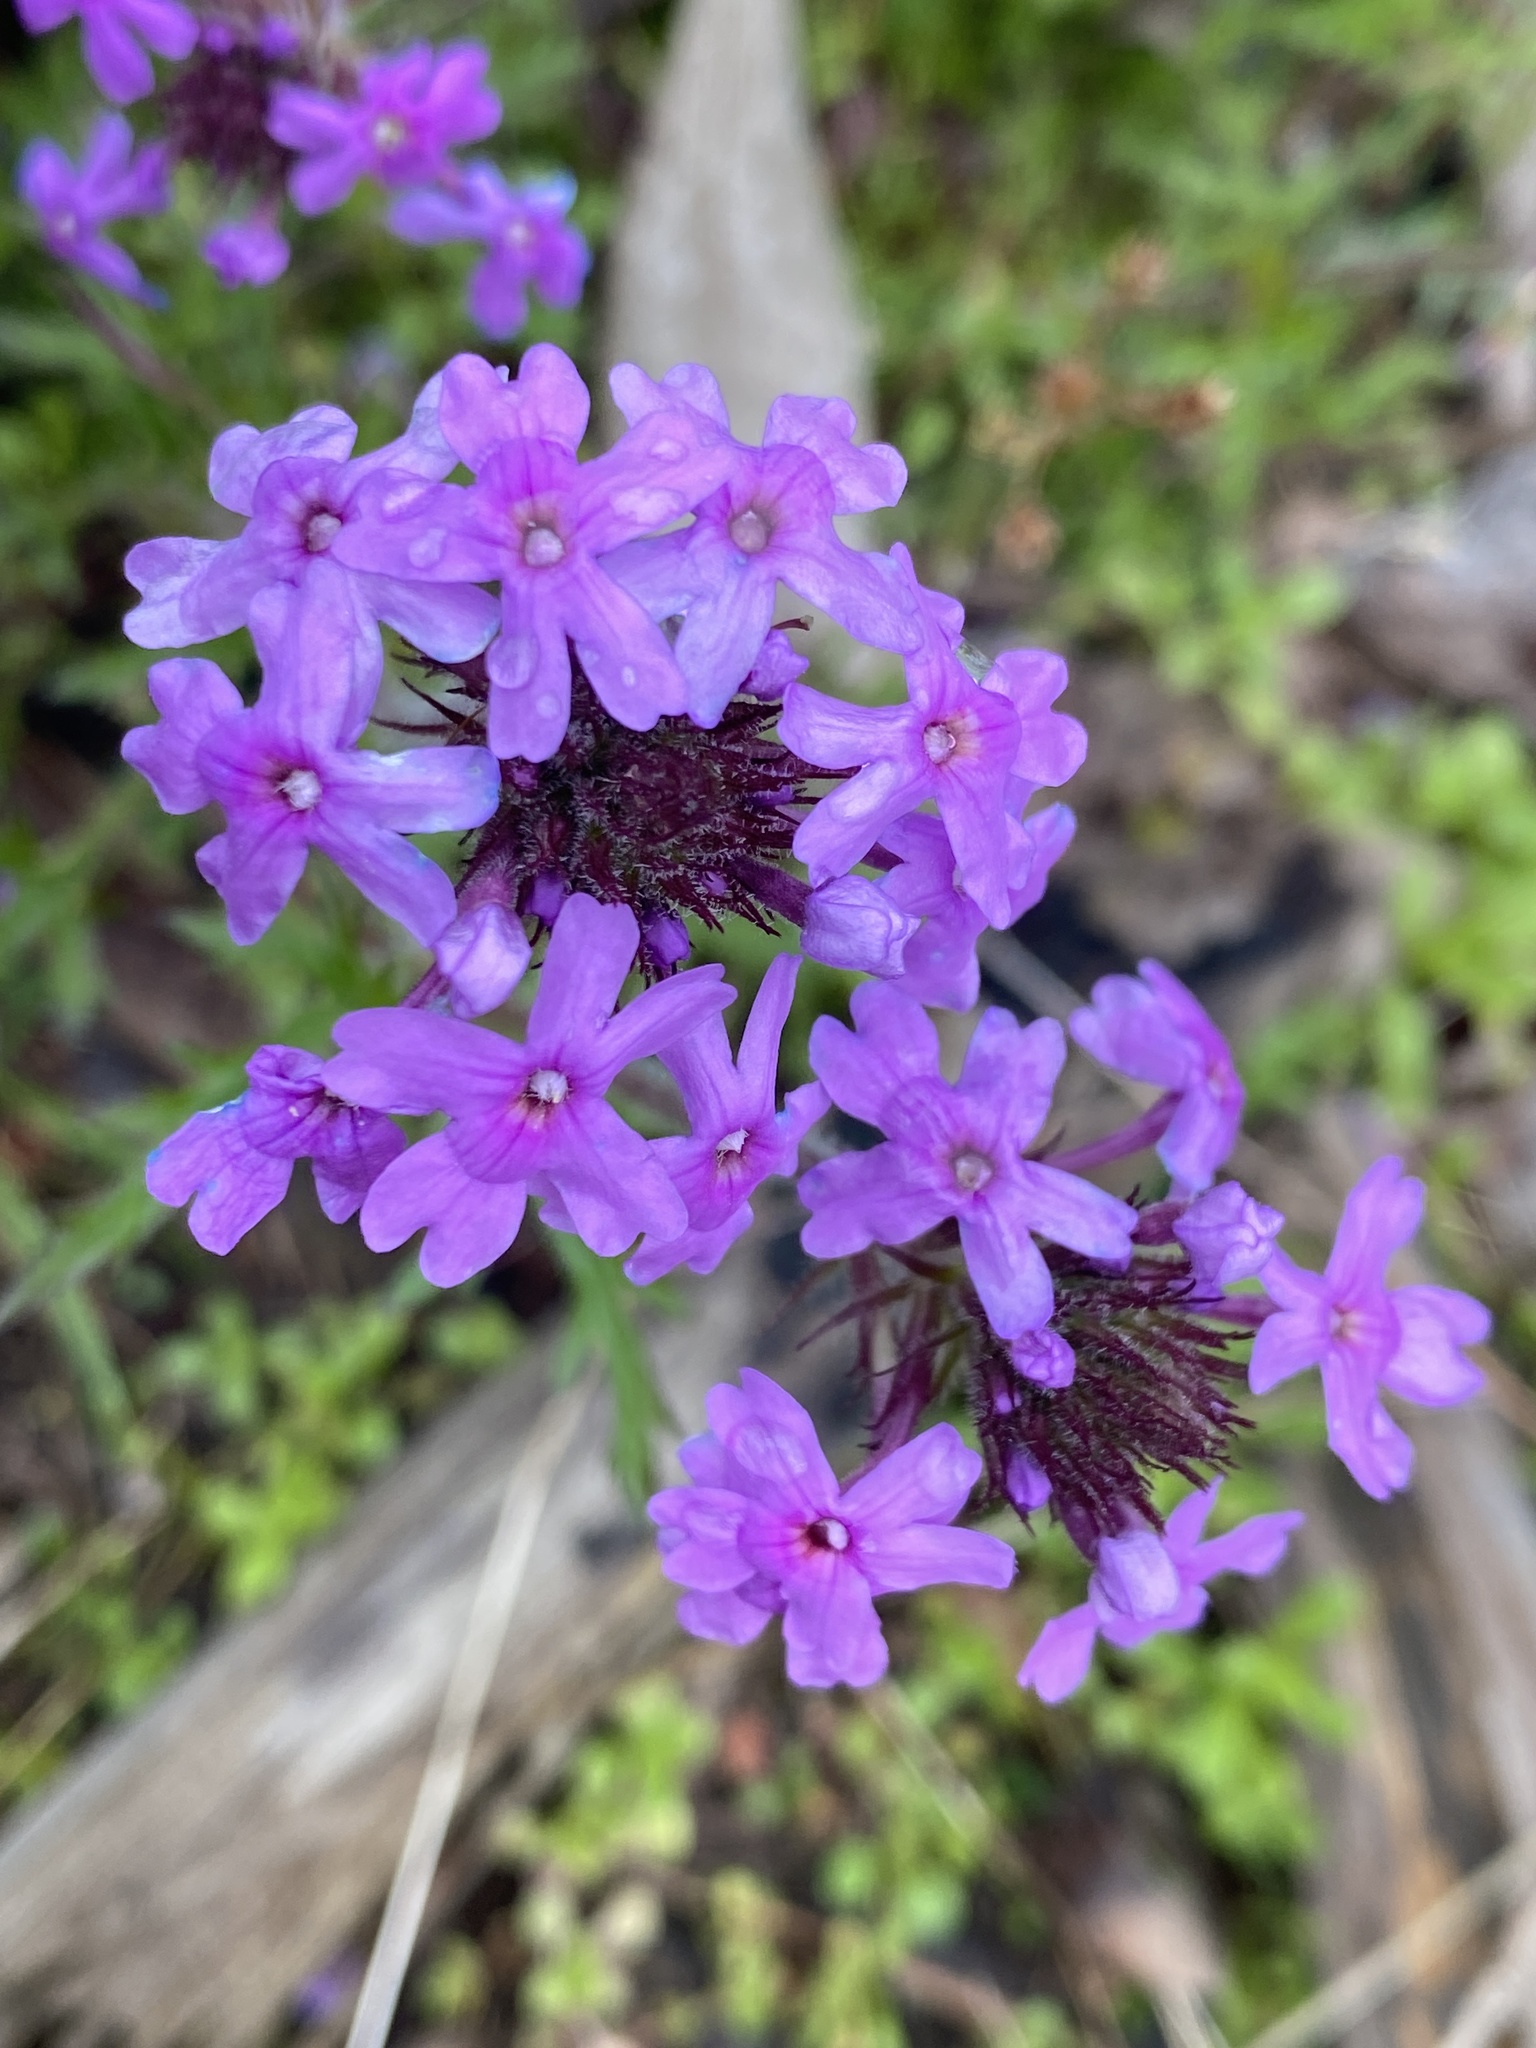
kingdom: Plantae
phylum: Tracheophyta
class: Magnoliopsida
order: Lamiales
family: Verbenaceae
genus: Verbena
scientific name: Verbena canadensis
